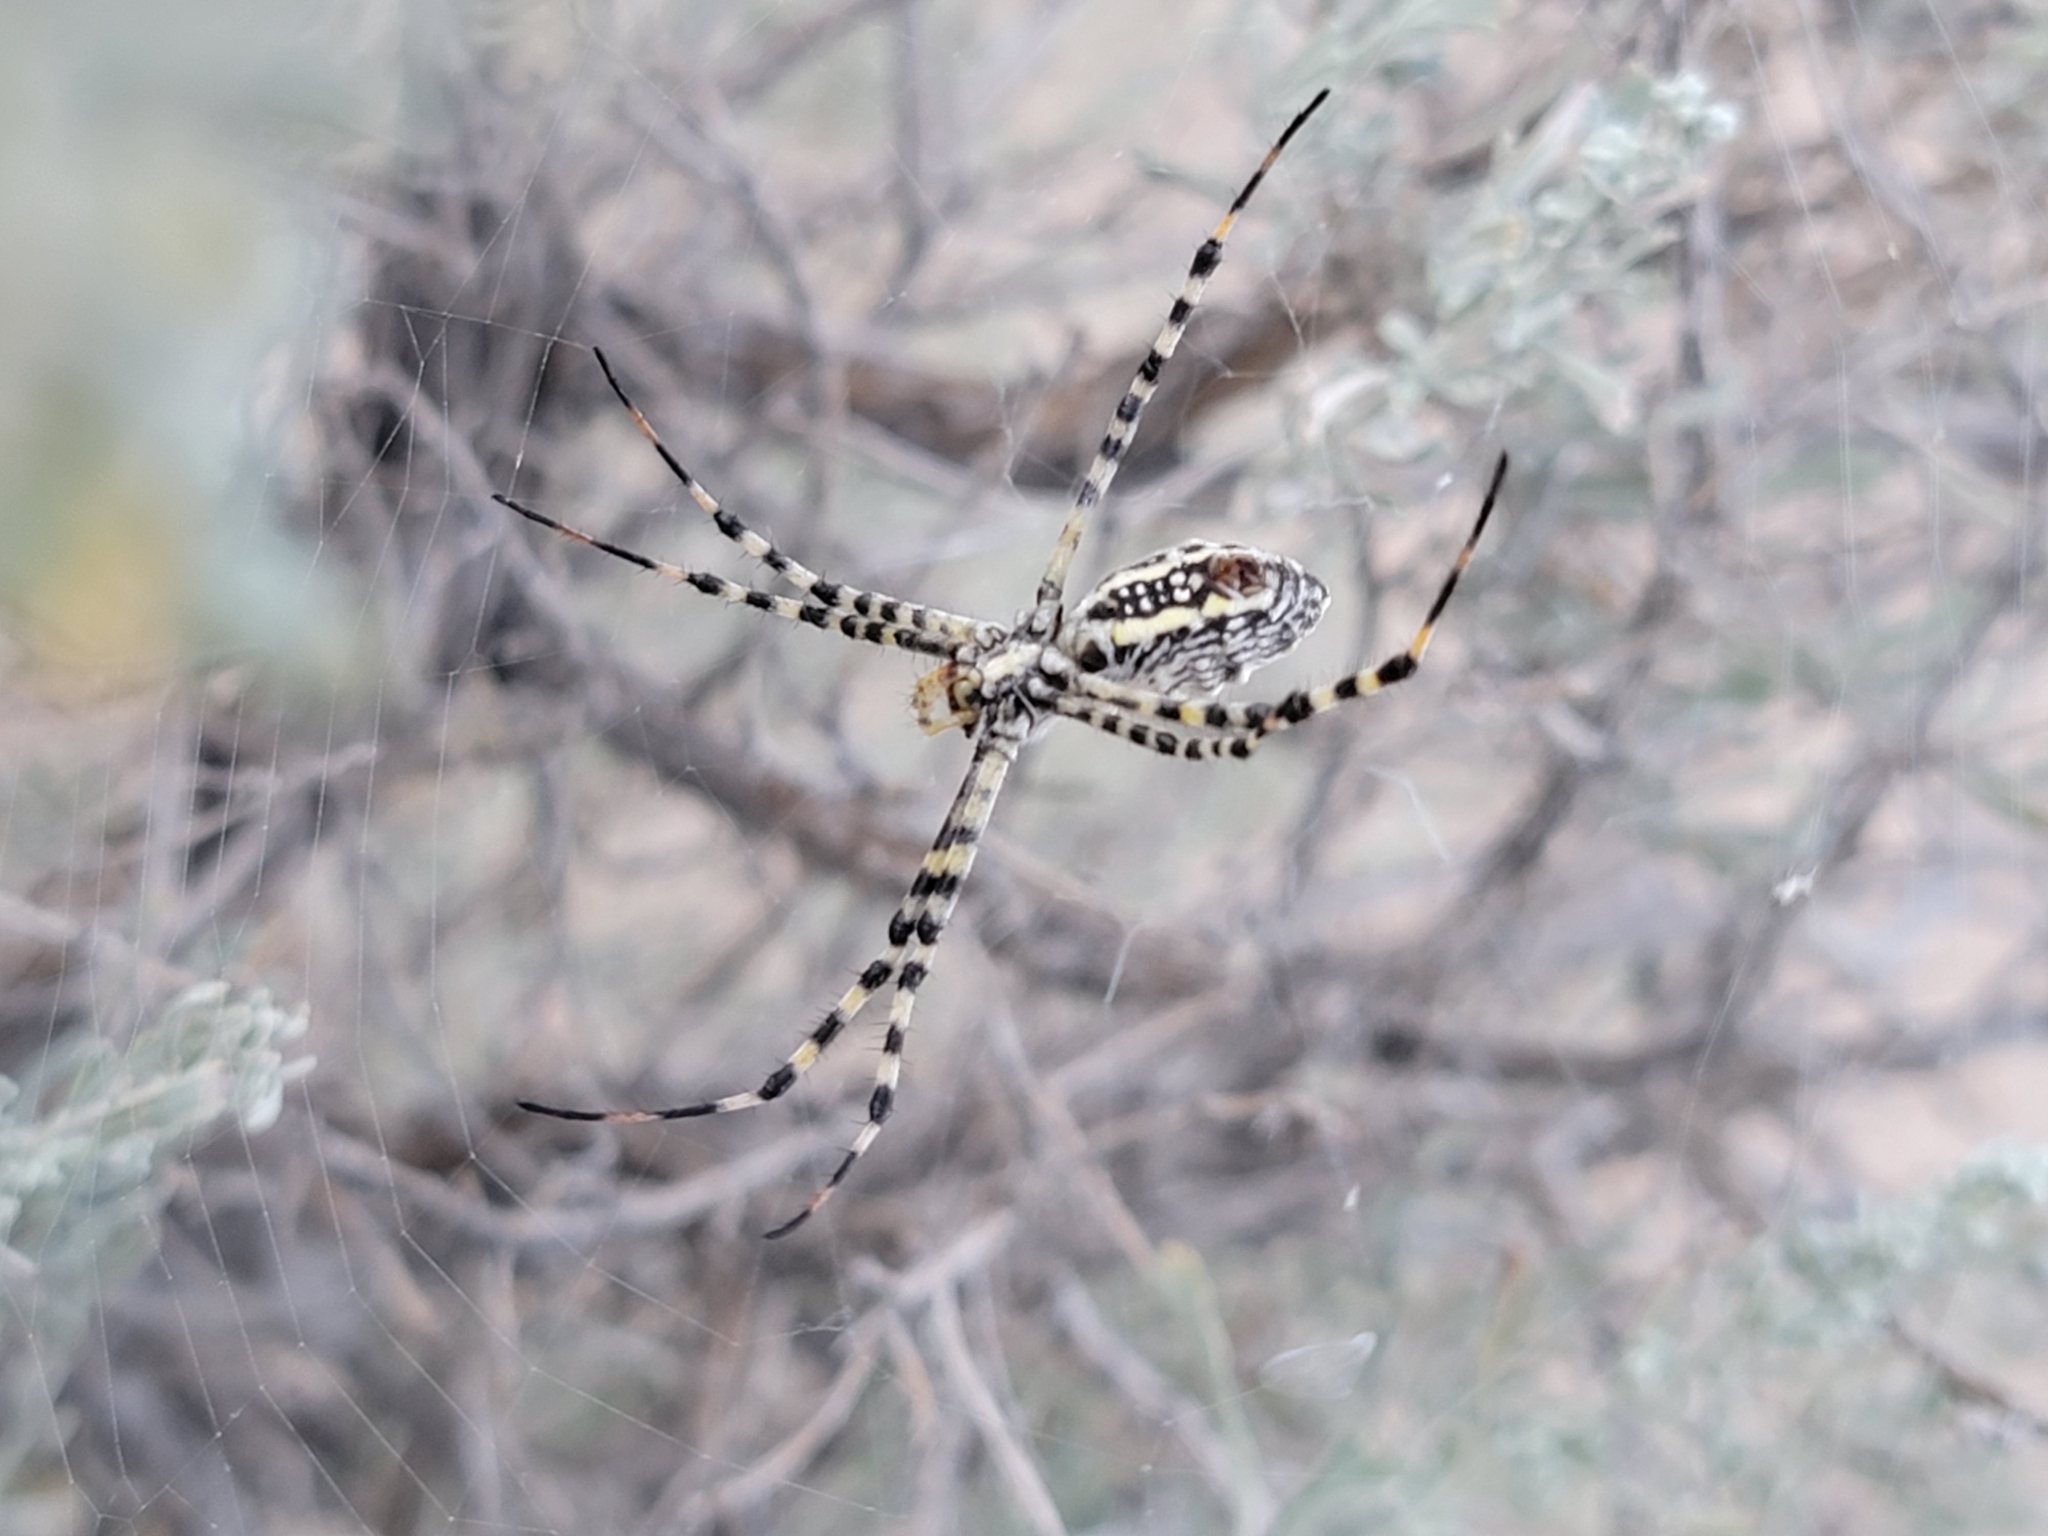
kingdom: Animalia
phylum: Arthropoda
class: Arachnida
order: Araneae
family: Araneidae
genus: Argiope
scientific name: Argiope trifasciata
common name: Banded garden spider
